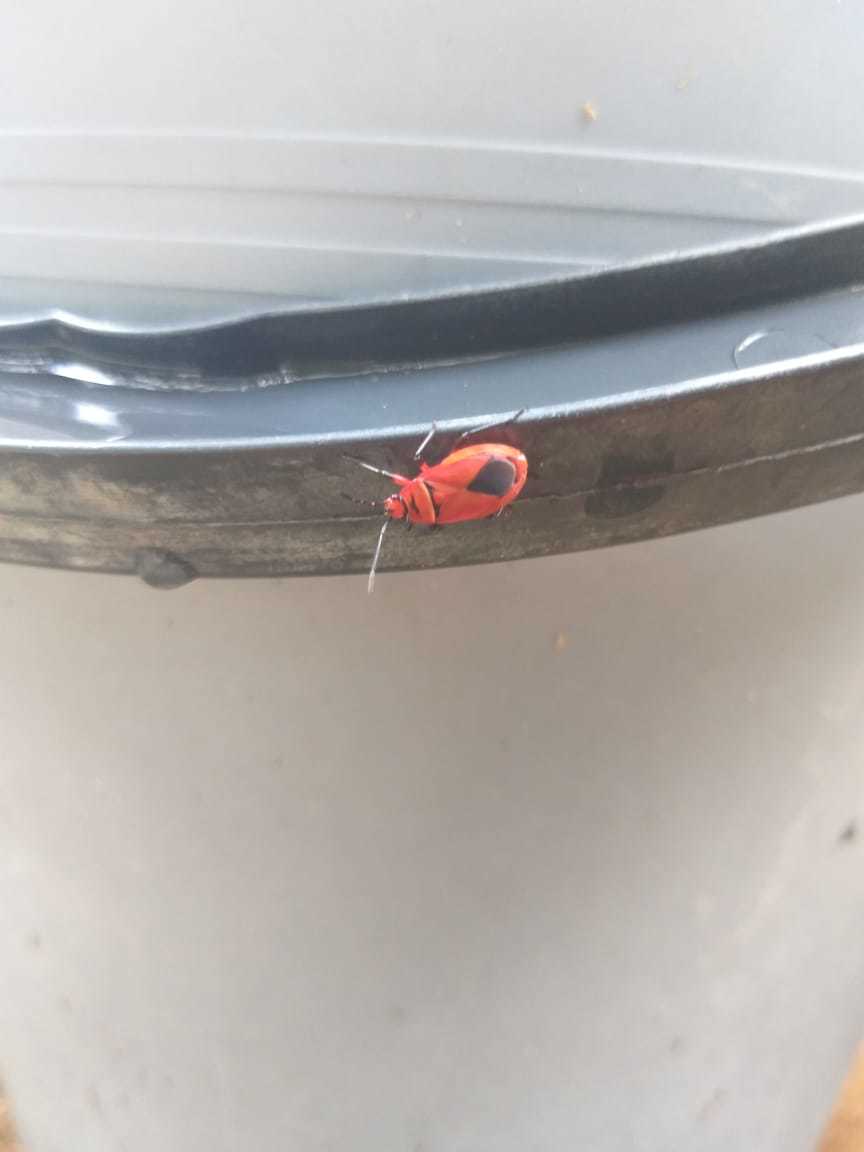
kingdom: Animalia
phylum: Arthropoda
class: Insecta
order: Hemiptera
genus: Cenaeus
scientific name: Cenaeus
